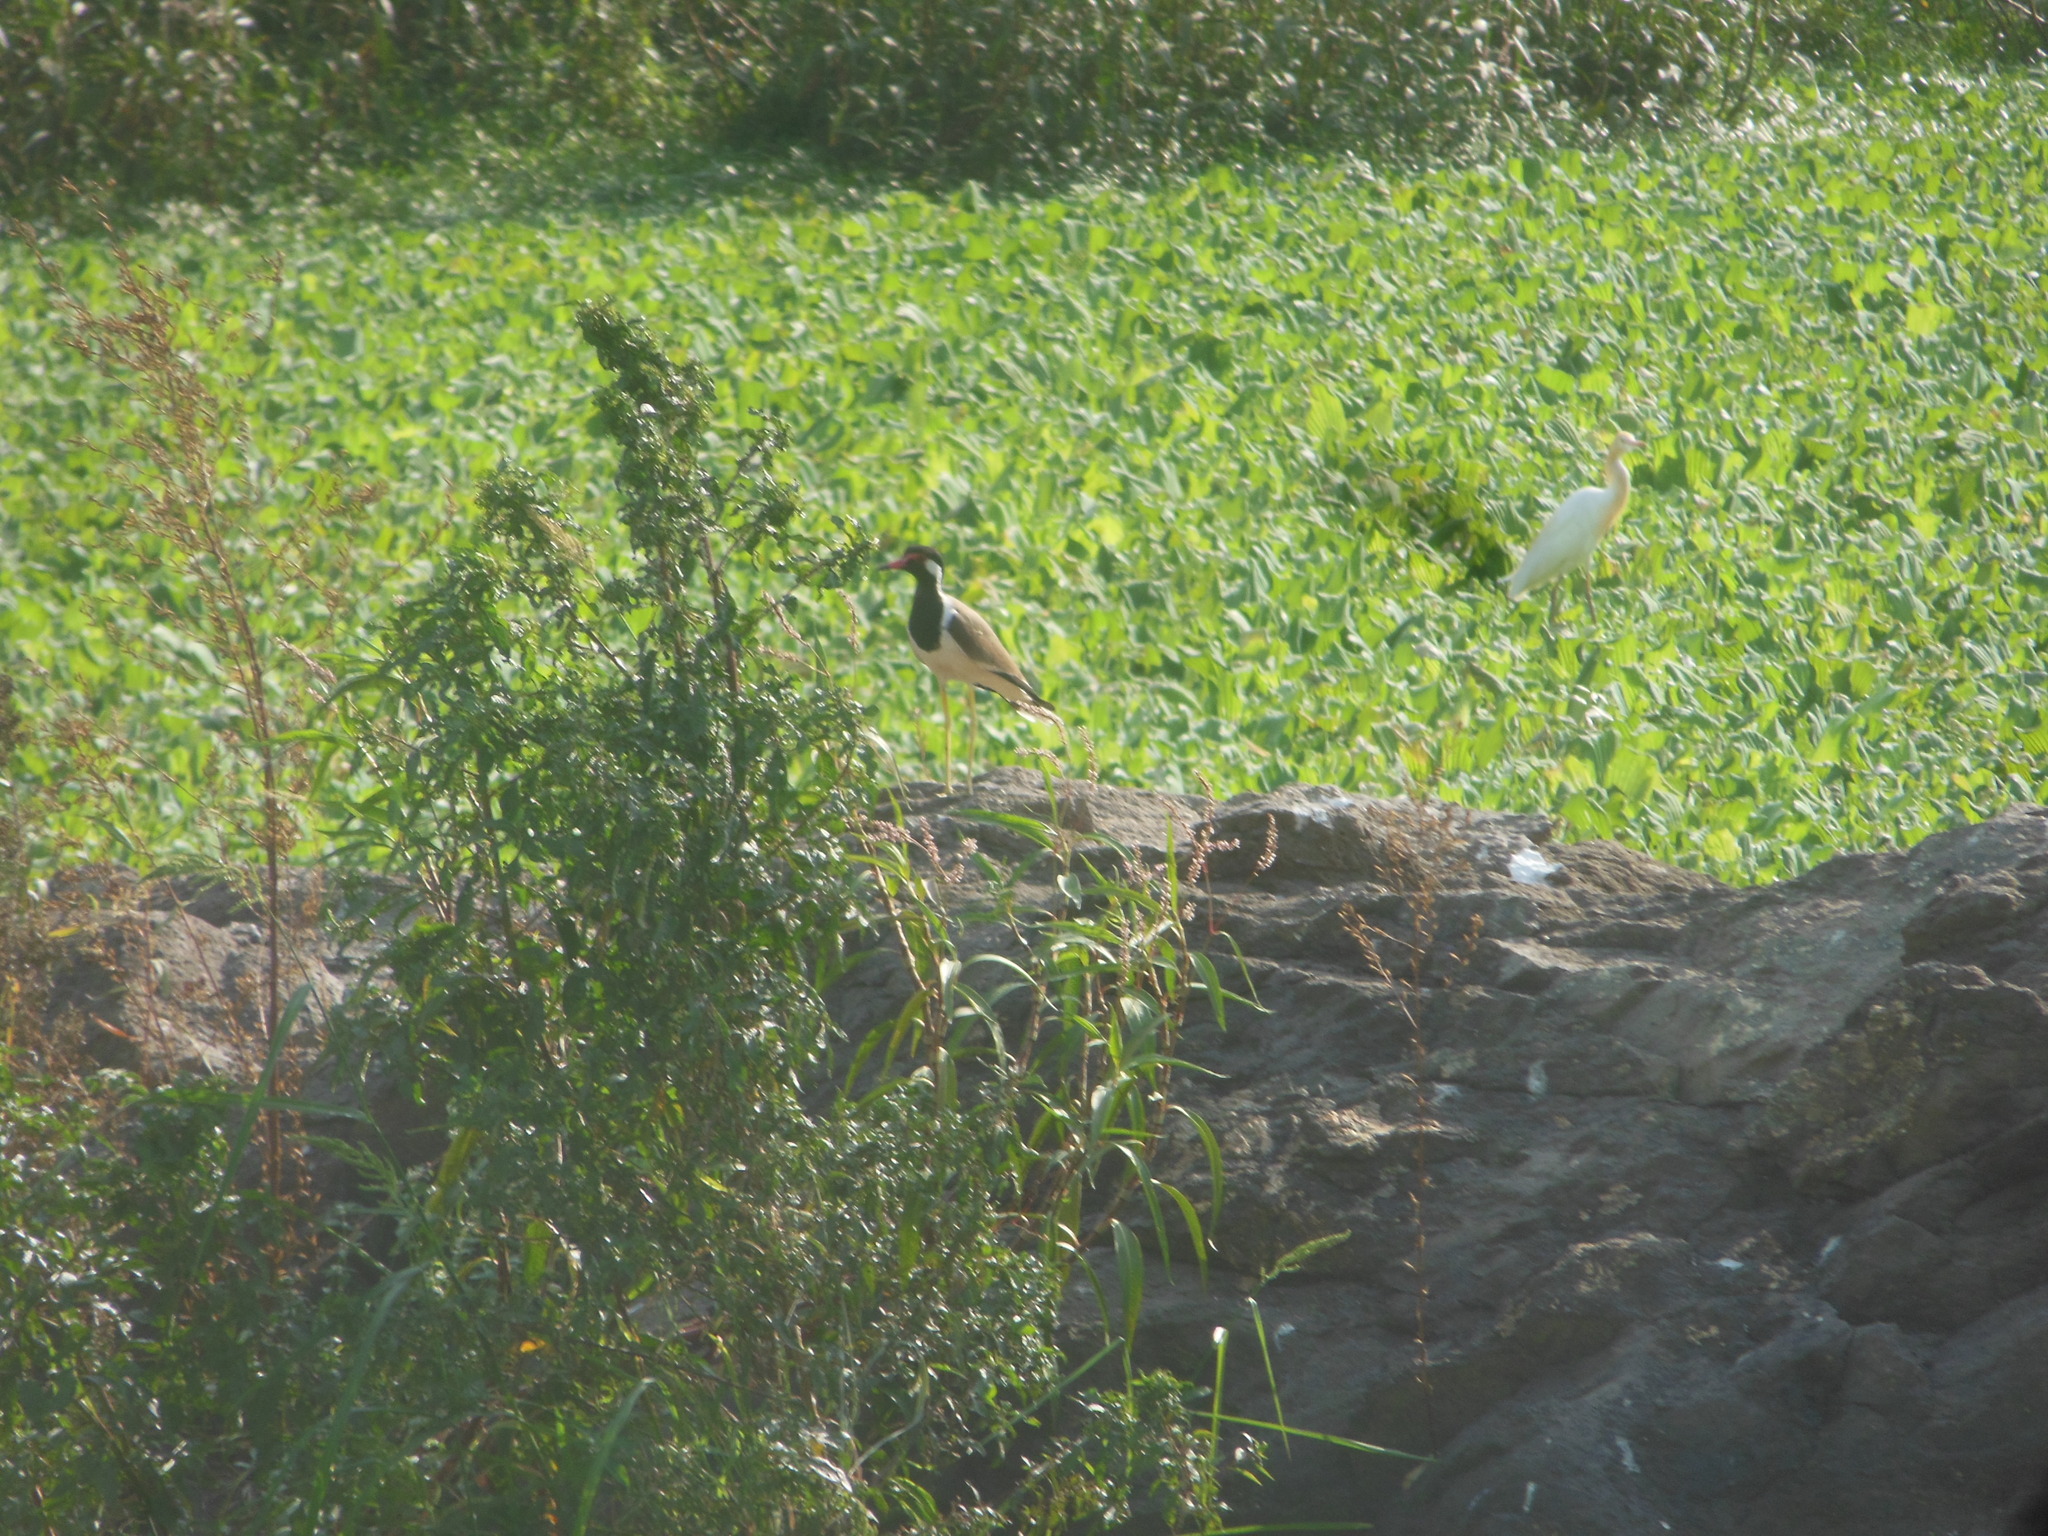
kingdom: Animalia
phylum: Chordata
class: Aves
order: Charadriiformes
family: Charadriidae
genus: Vanellus
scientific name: Vanellus indicus
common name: Red-wattled lapwing
